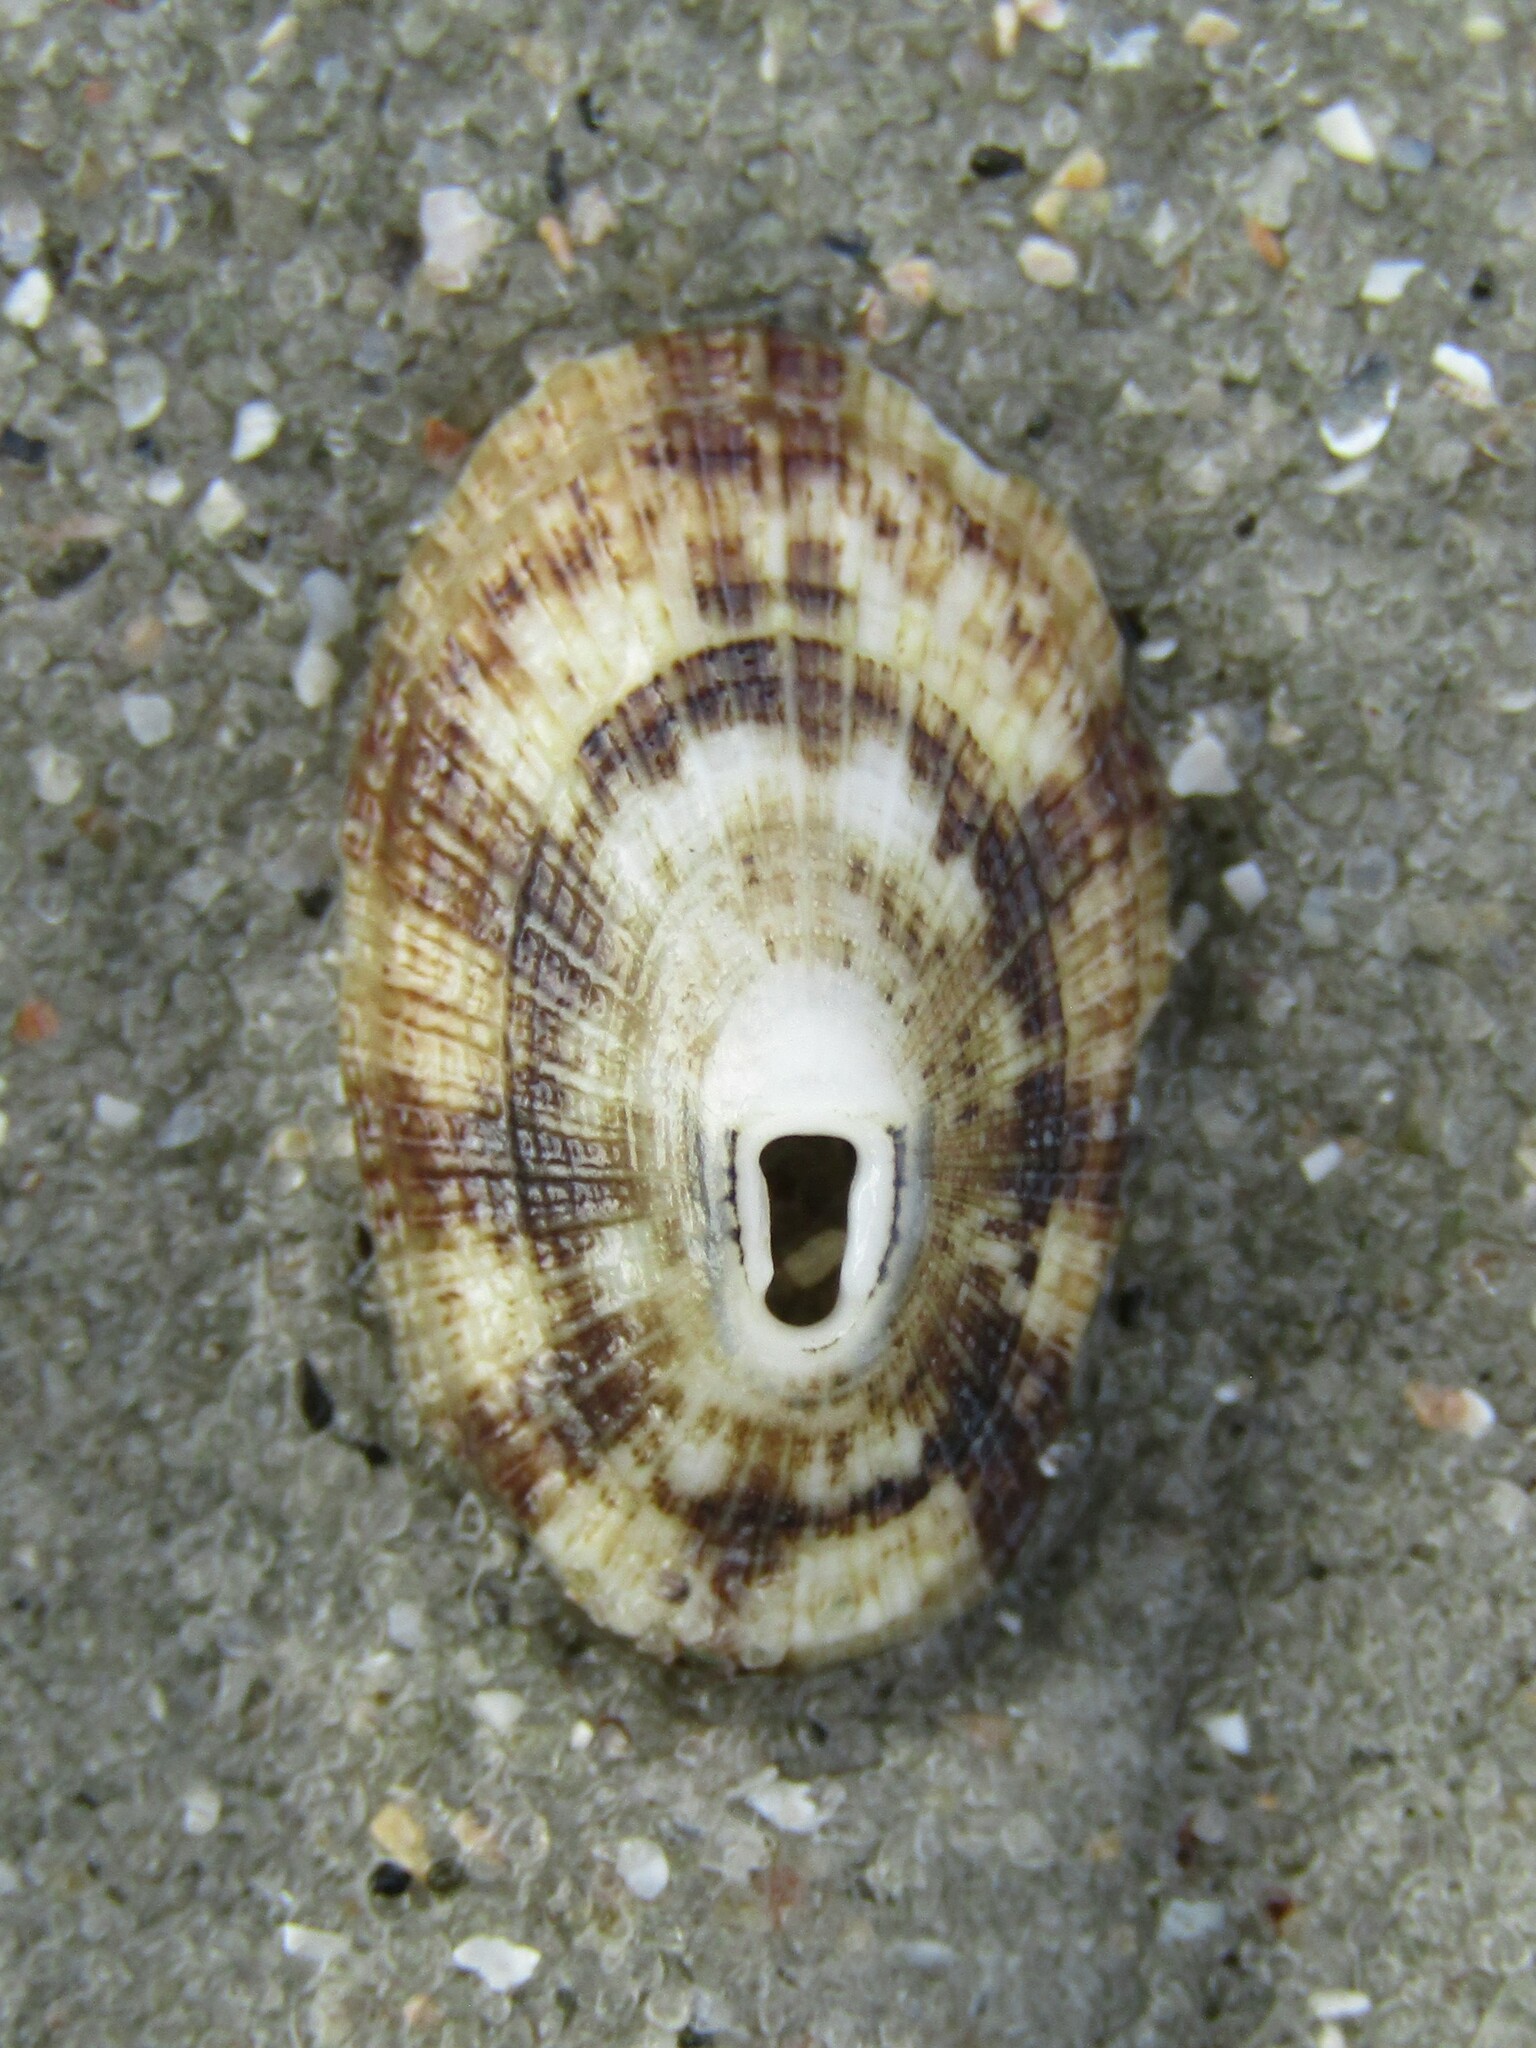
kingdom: Animalia
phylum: Mollusca
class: Gastropoda
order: Lepetellida
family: Fissurellidae
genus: Diodora
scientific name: Diodora cayenensis
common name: Cayenne keyhole limpet
